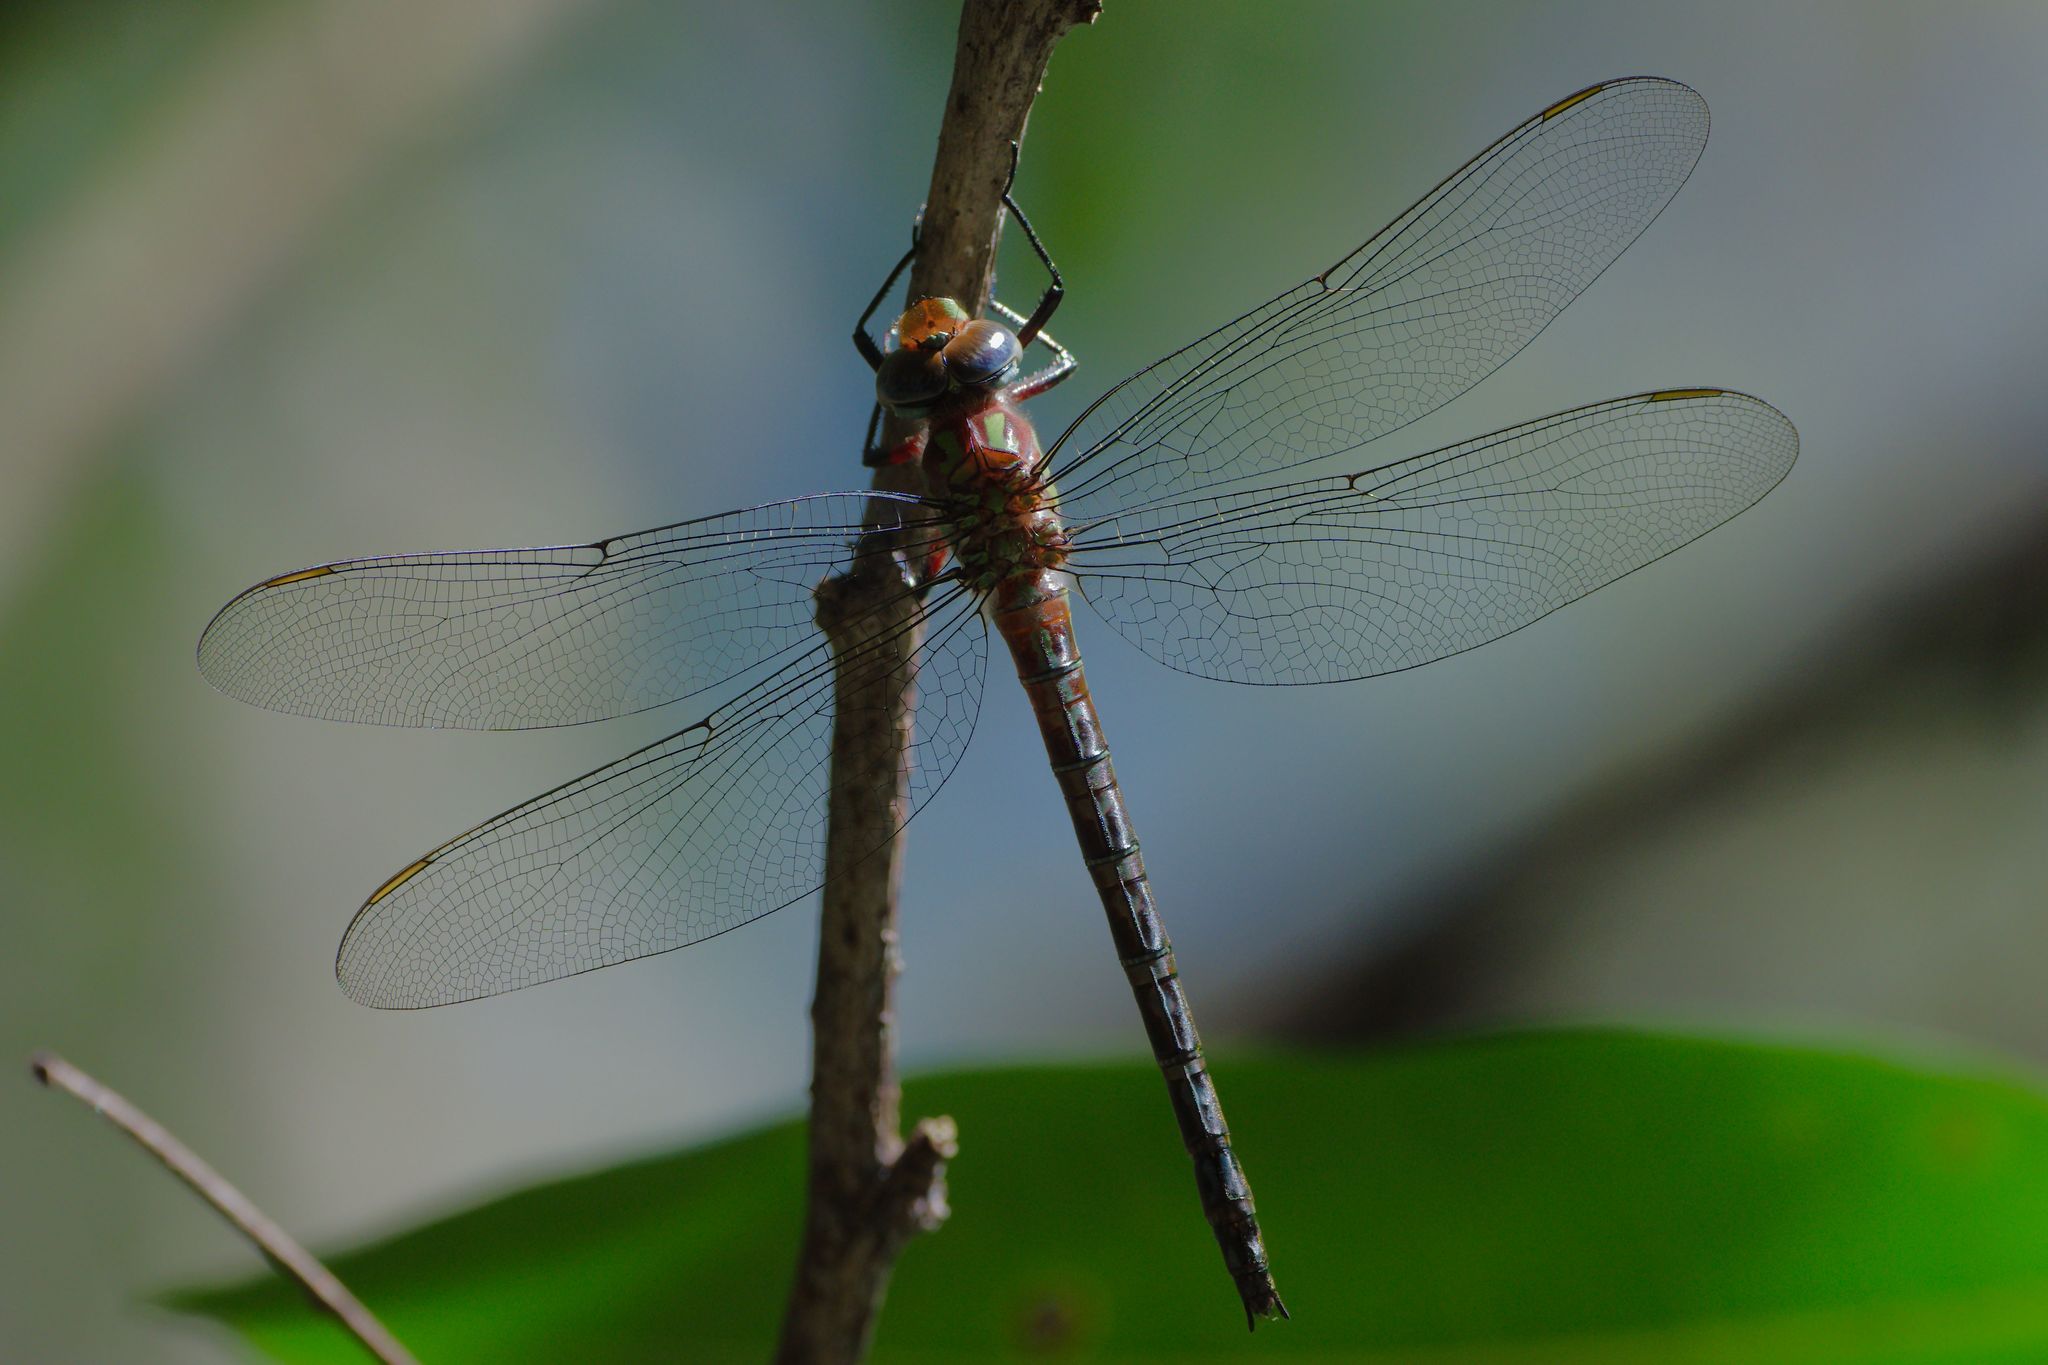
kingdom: Animalia
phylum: Arthropoda
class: Insecta
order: Odonata
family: Aeshnidae
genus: Nasiaeschna
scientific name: Nasiaeschna pentacantha
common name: Cyrano darner
